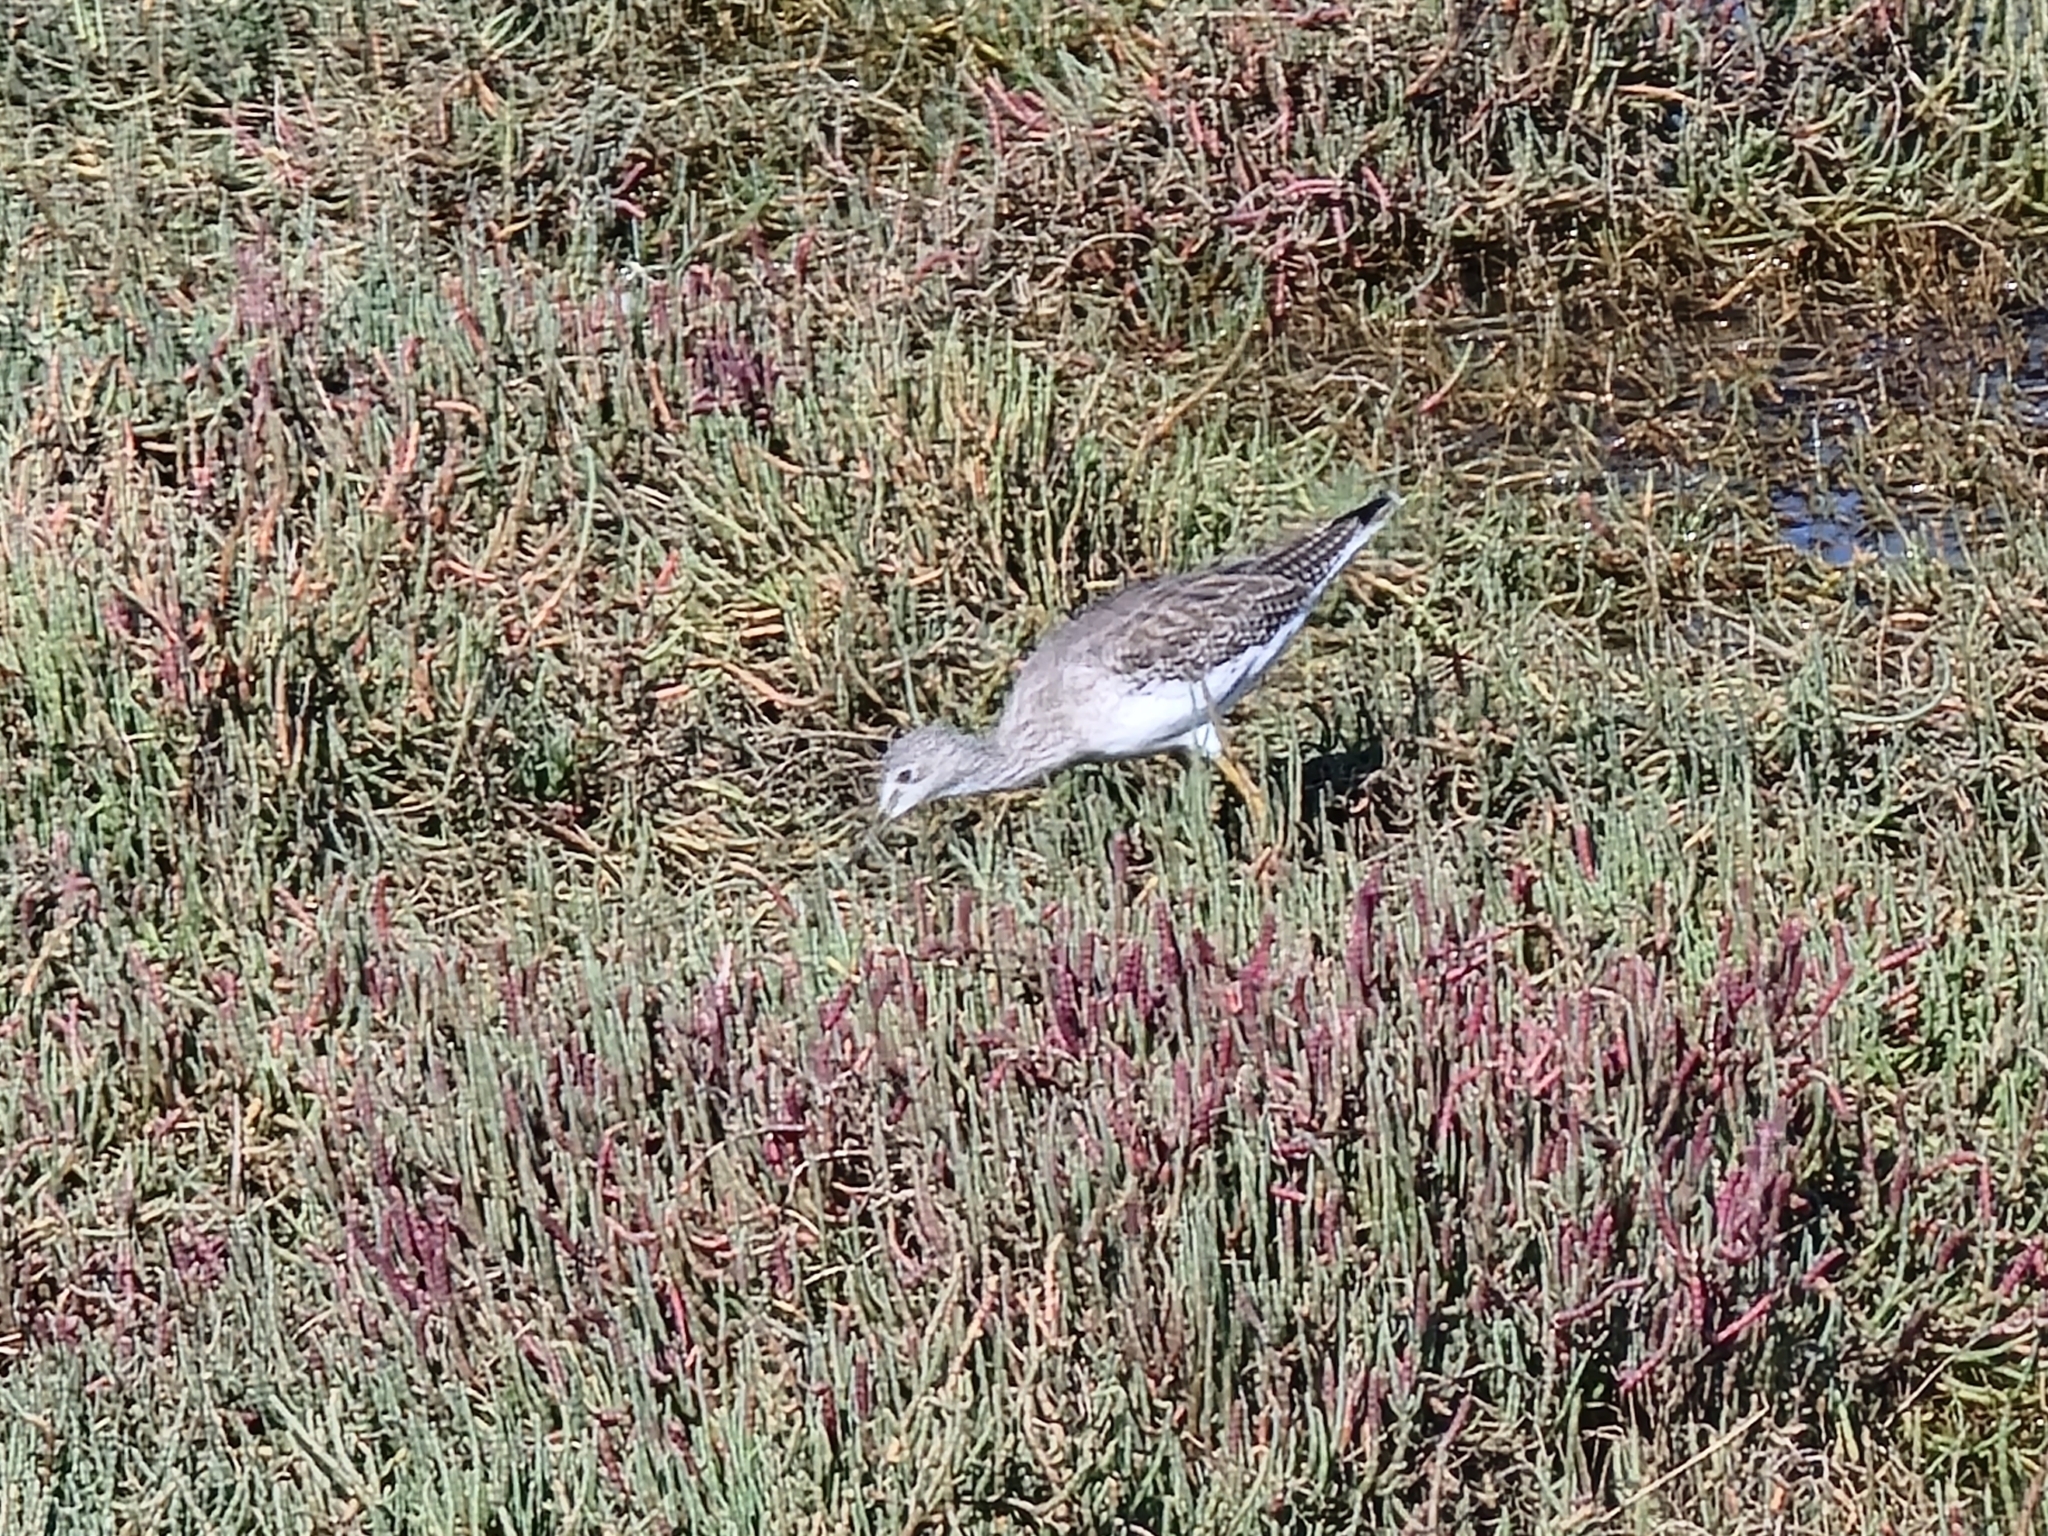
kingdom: Animalia
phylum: Chordata
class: Aves
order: Charadriiformes
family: Scolopacidae
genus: Tringa
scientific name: Tringa melanoleuca
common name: Greater yellowlegs
